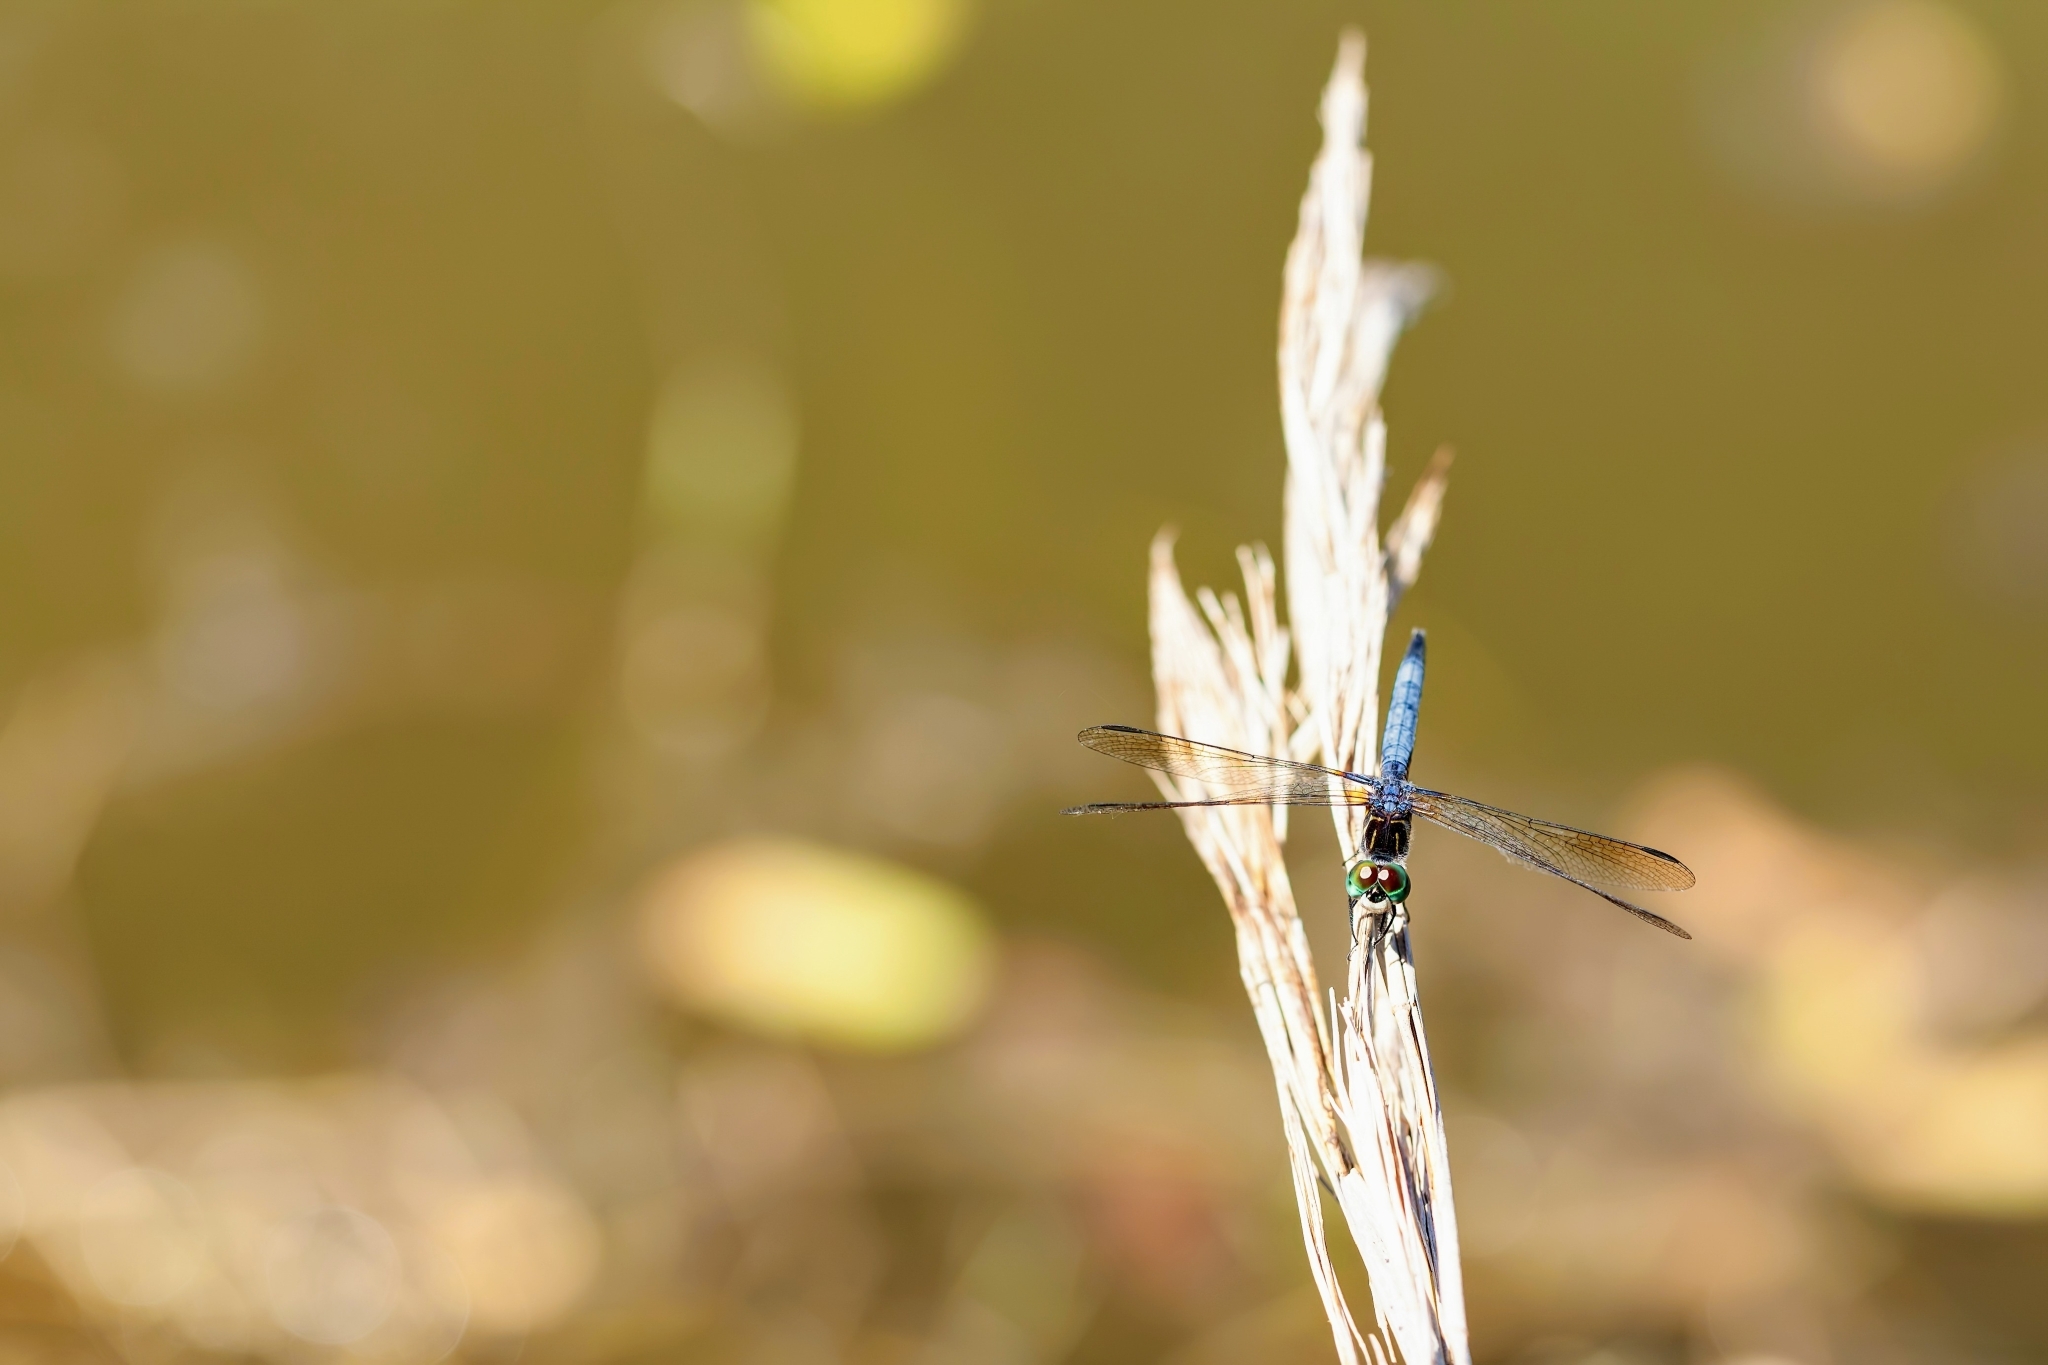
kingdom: Animalia
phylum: Arthropoda
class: Insecta
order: Odonata
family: Libellulidae
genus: Pachydiplax
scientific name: Pachydiplax longipennis
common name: Blue dasher
